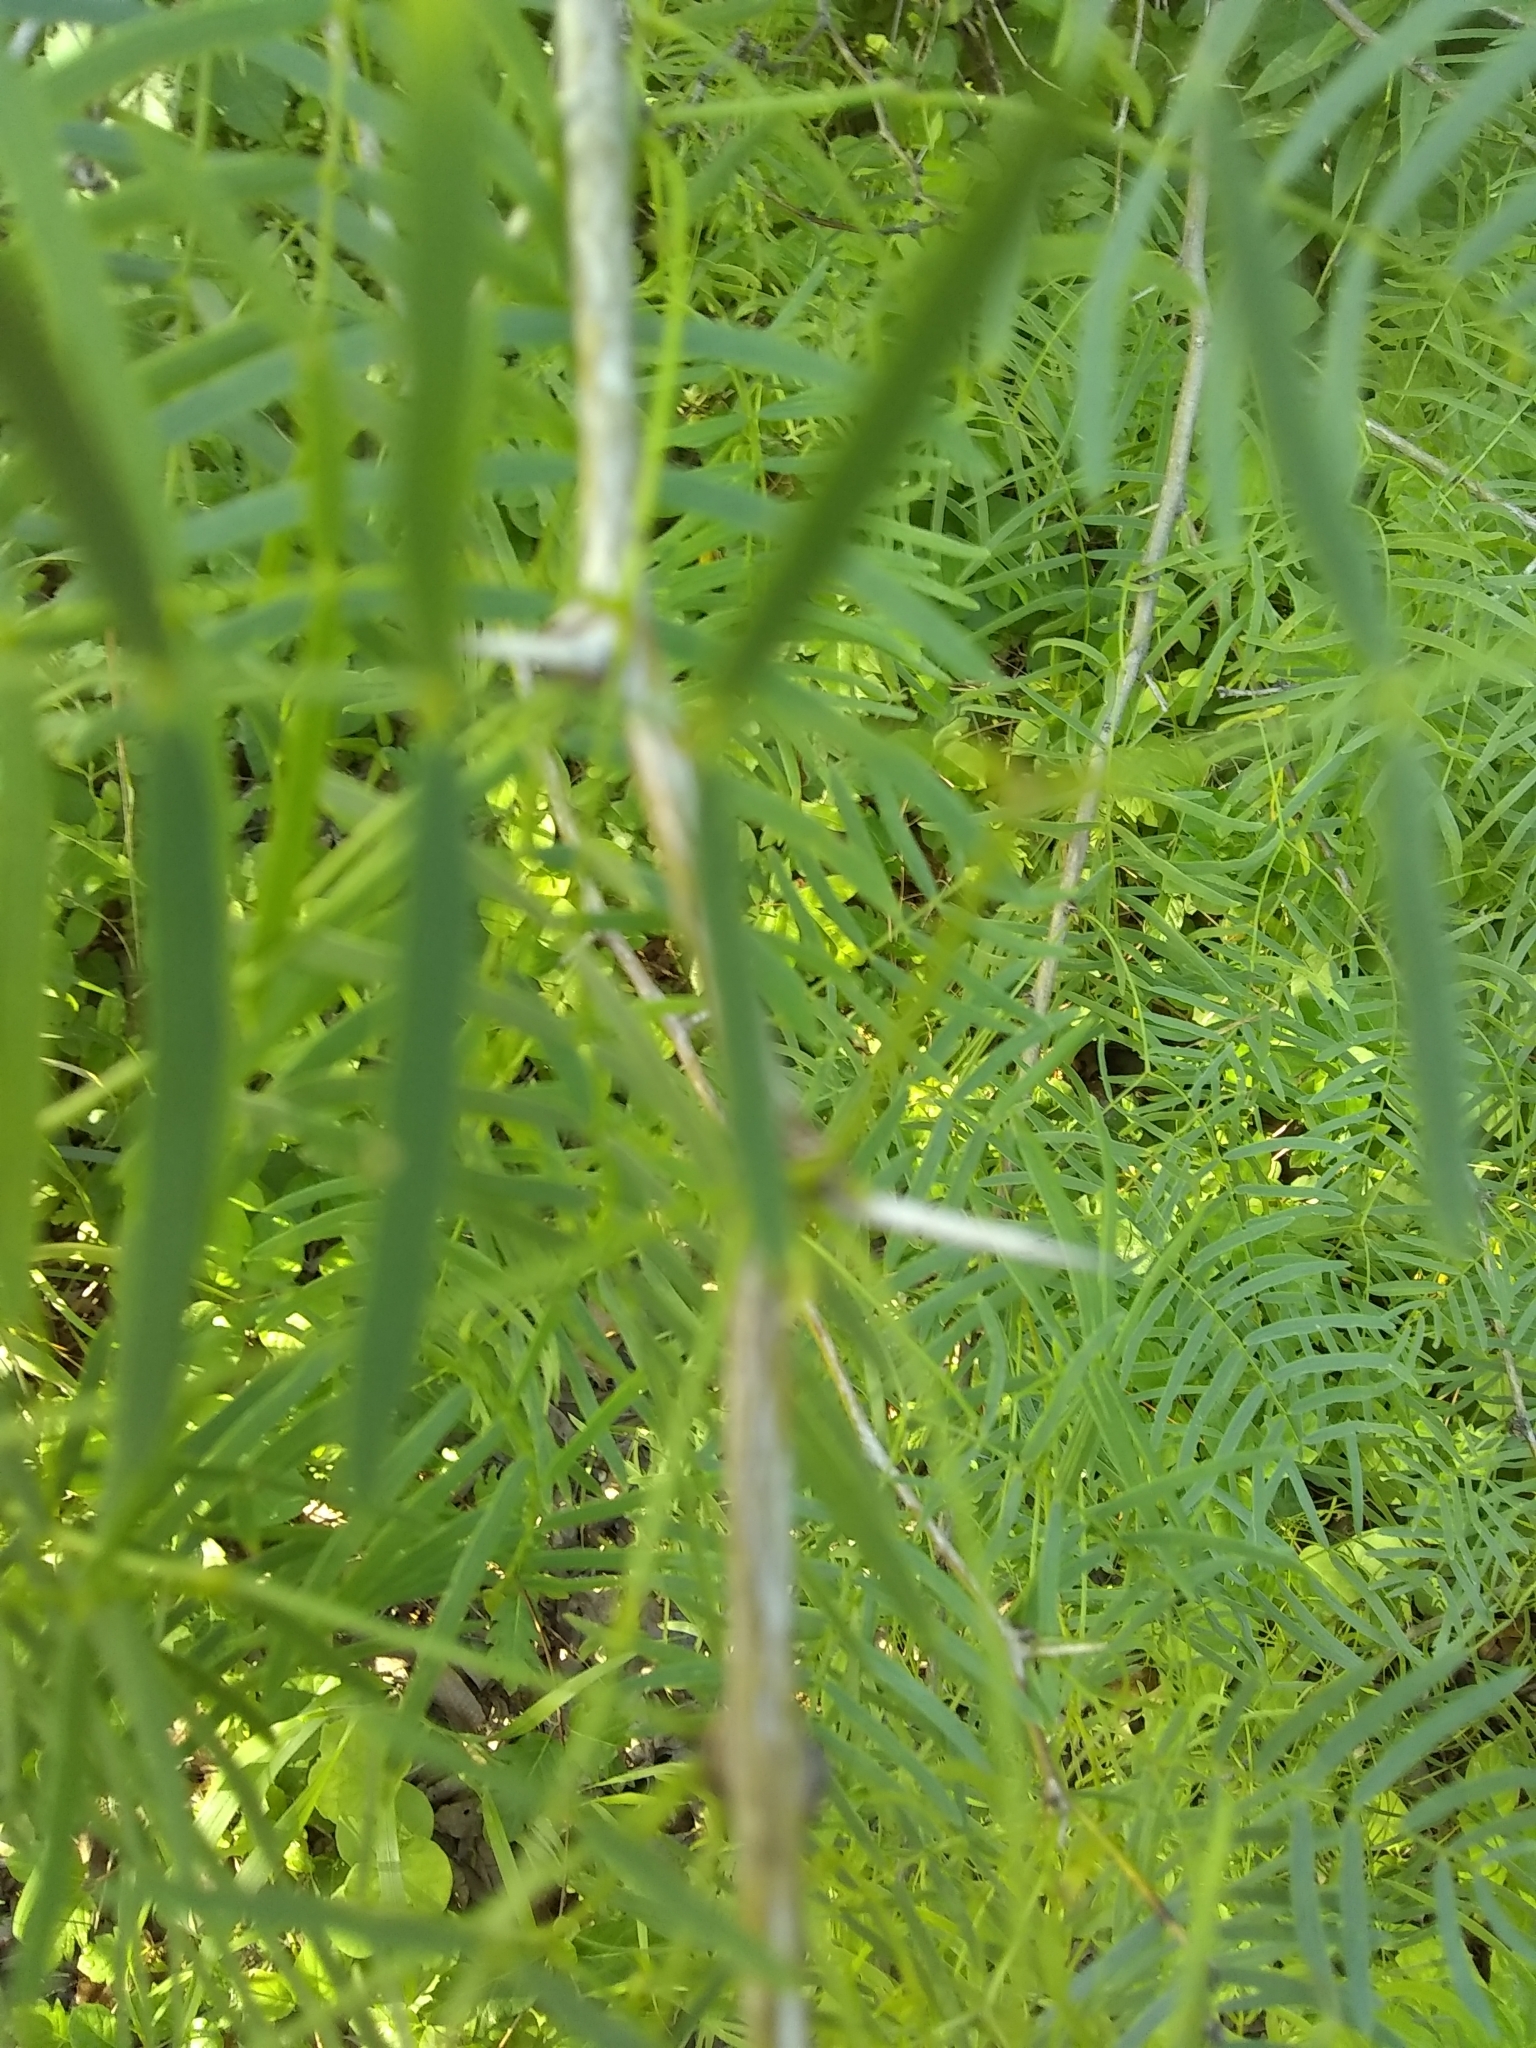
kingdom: Plantae
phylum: Tracheophyta
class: Magnoliopsida
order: Fabales
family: Fabaceae
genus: Prosopis
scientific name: Prosopis glandulosa
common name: Honey mesquite
